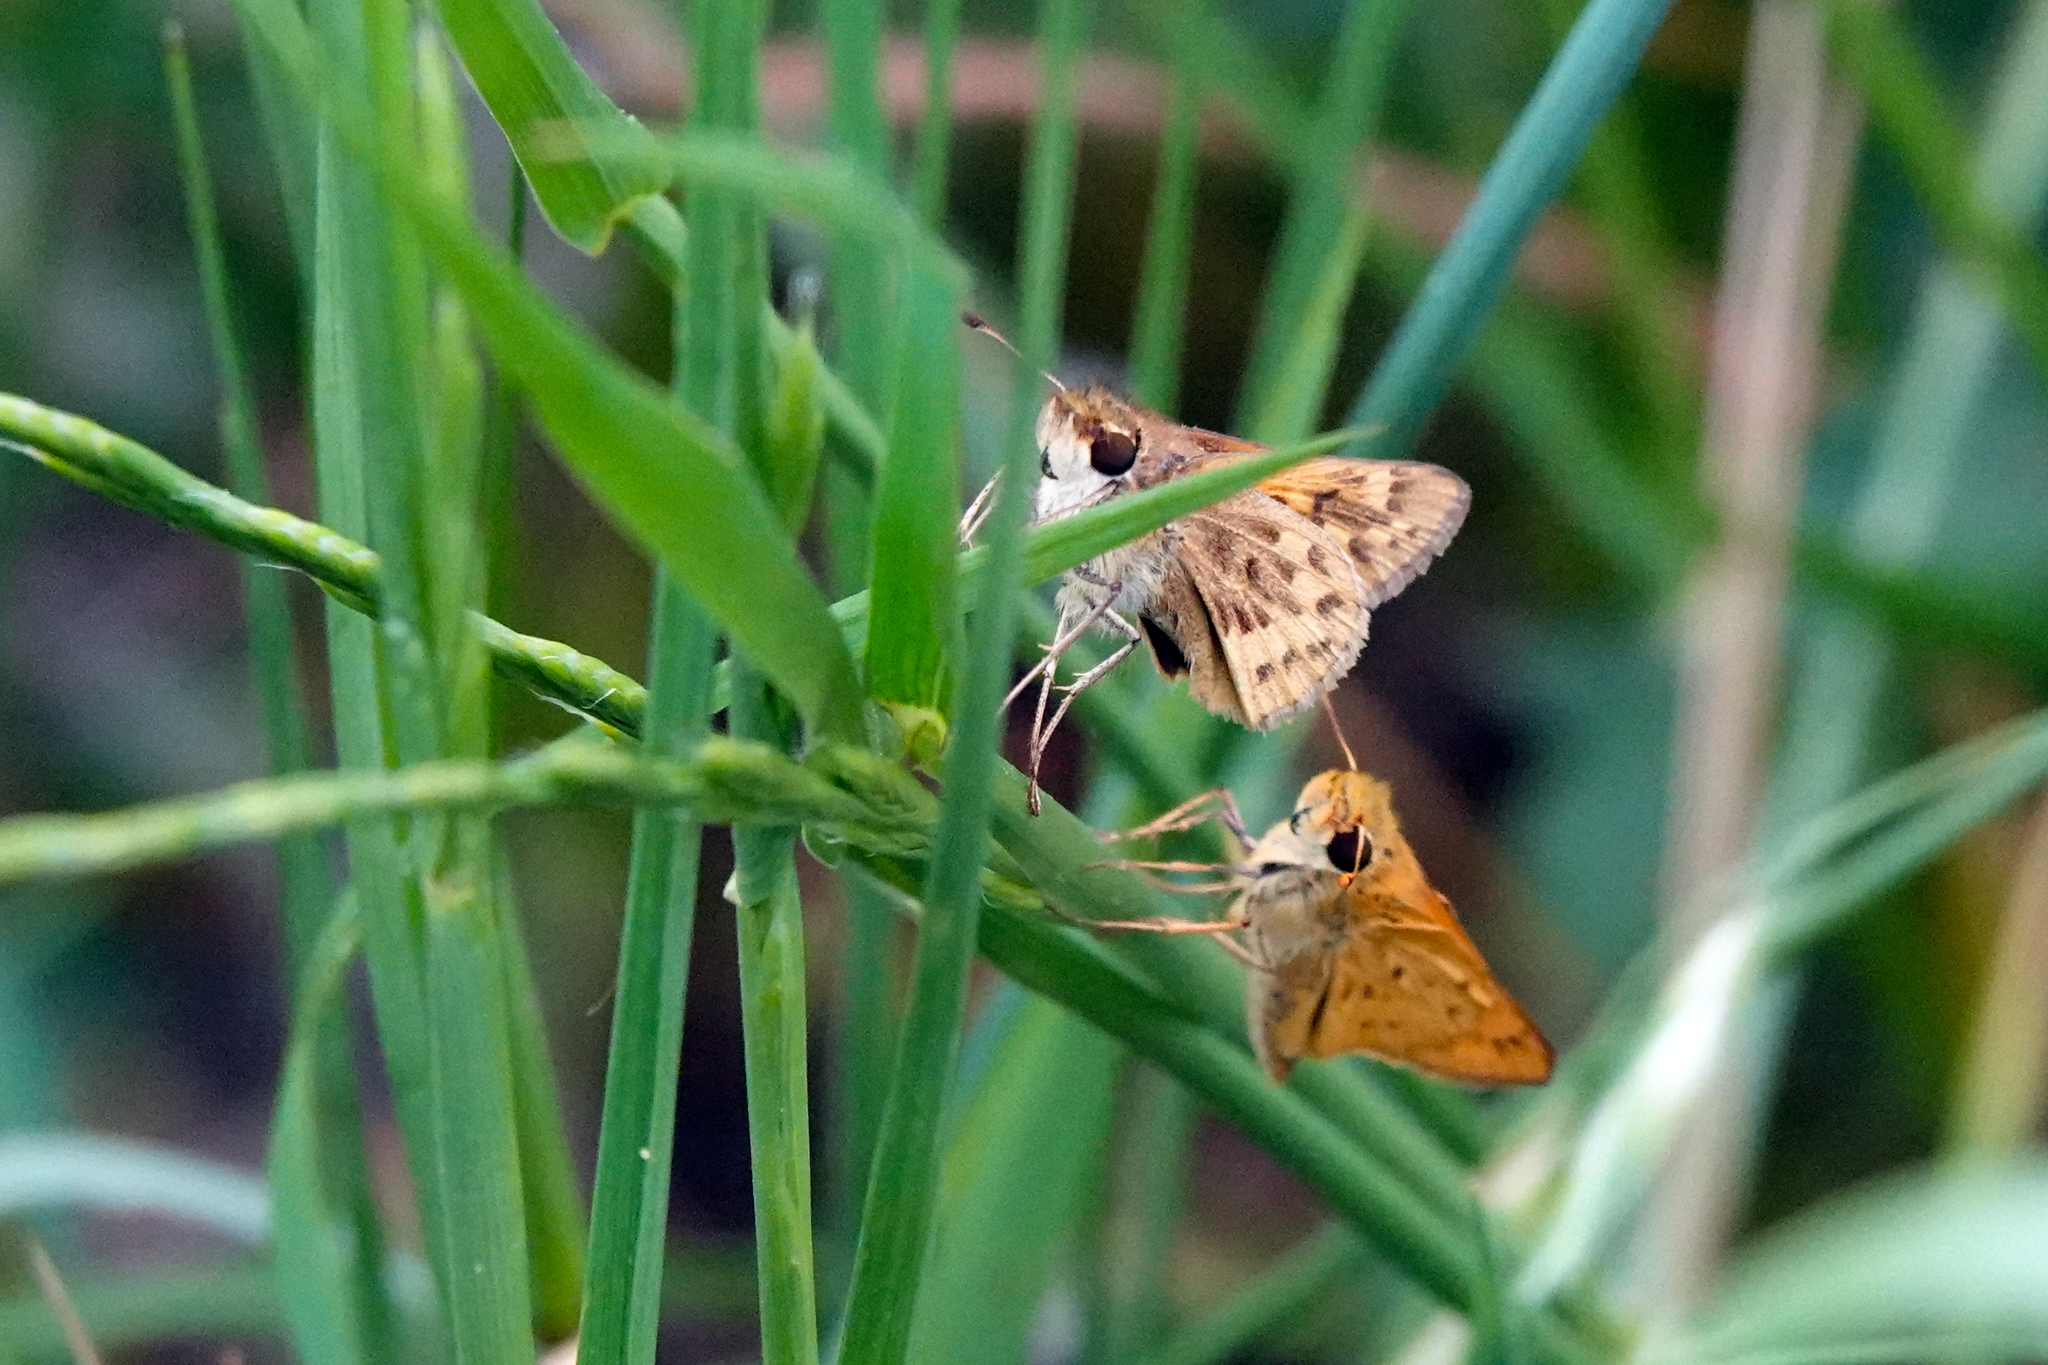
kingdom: Animalia
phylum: Arthropoda
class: Insecta
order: Lepidoptera
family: Hesperiidae
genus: Hylephila
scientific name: Hylephila phyleus
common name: Fiery skipper
